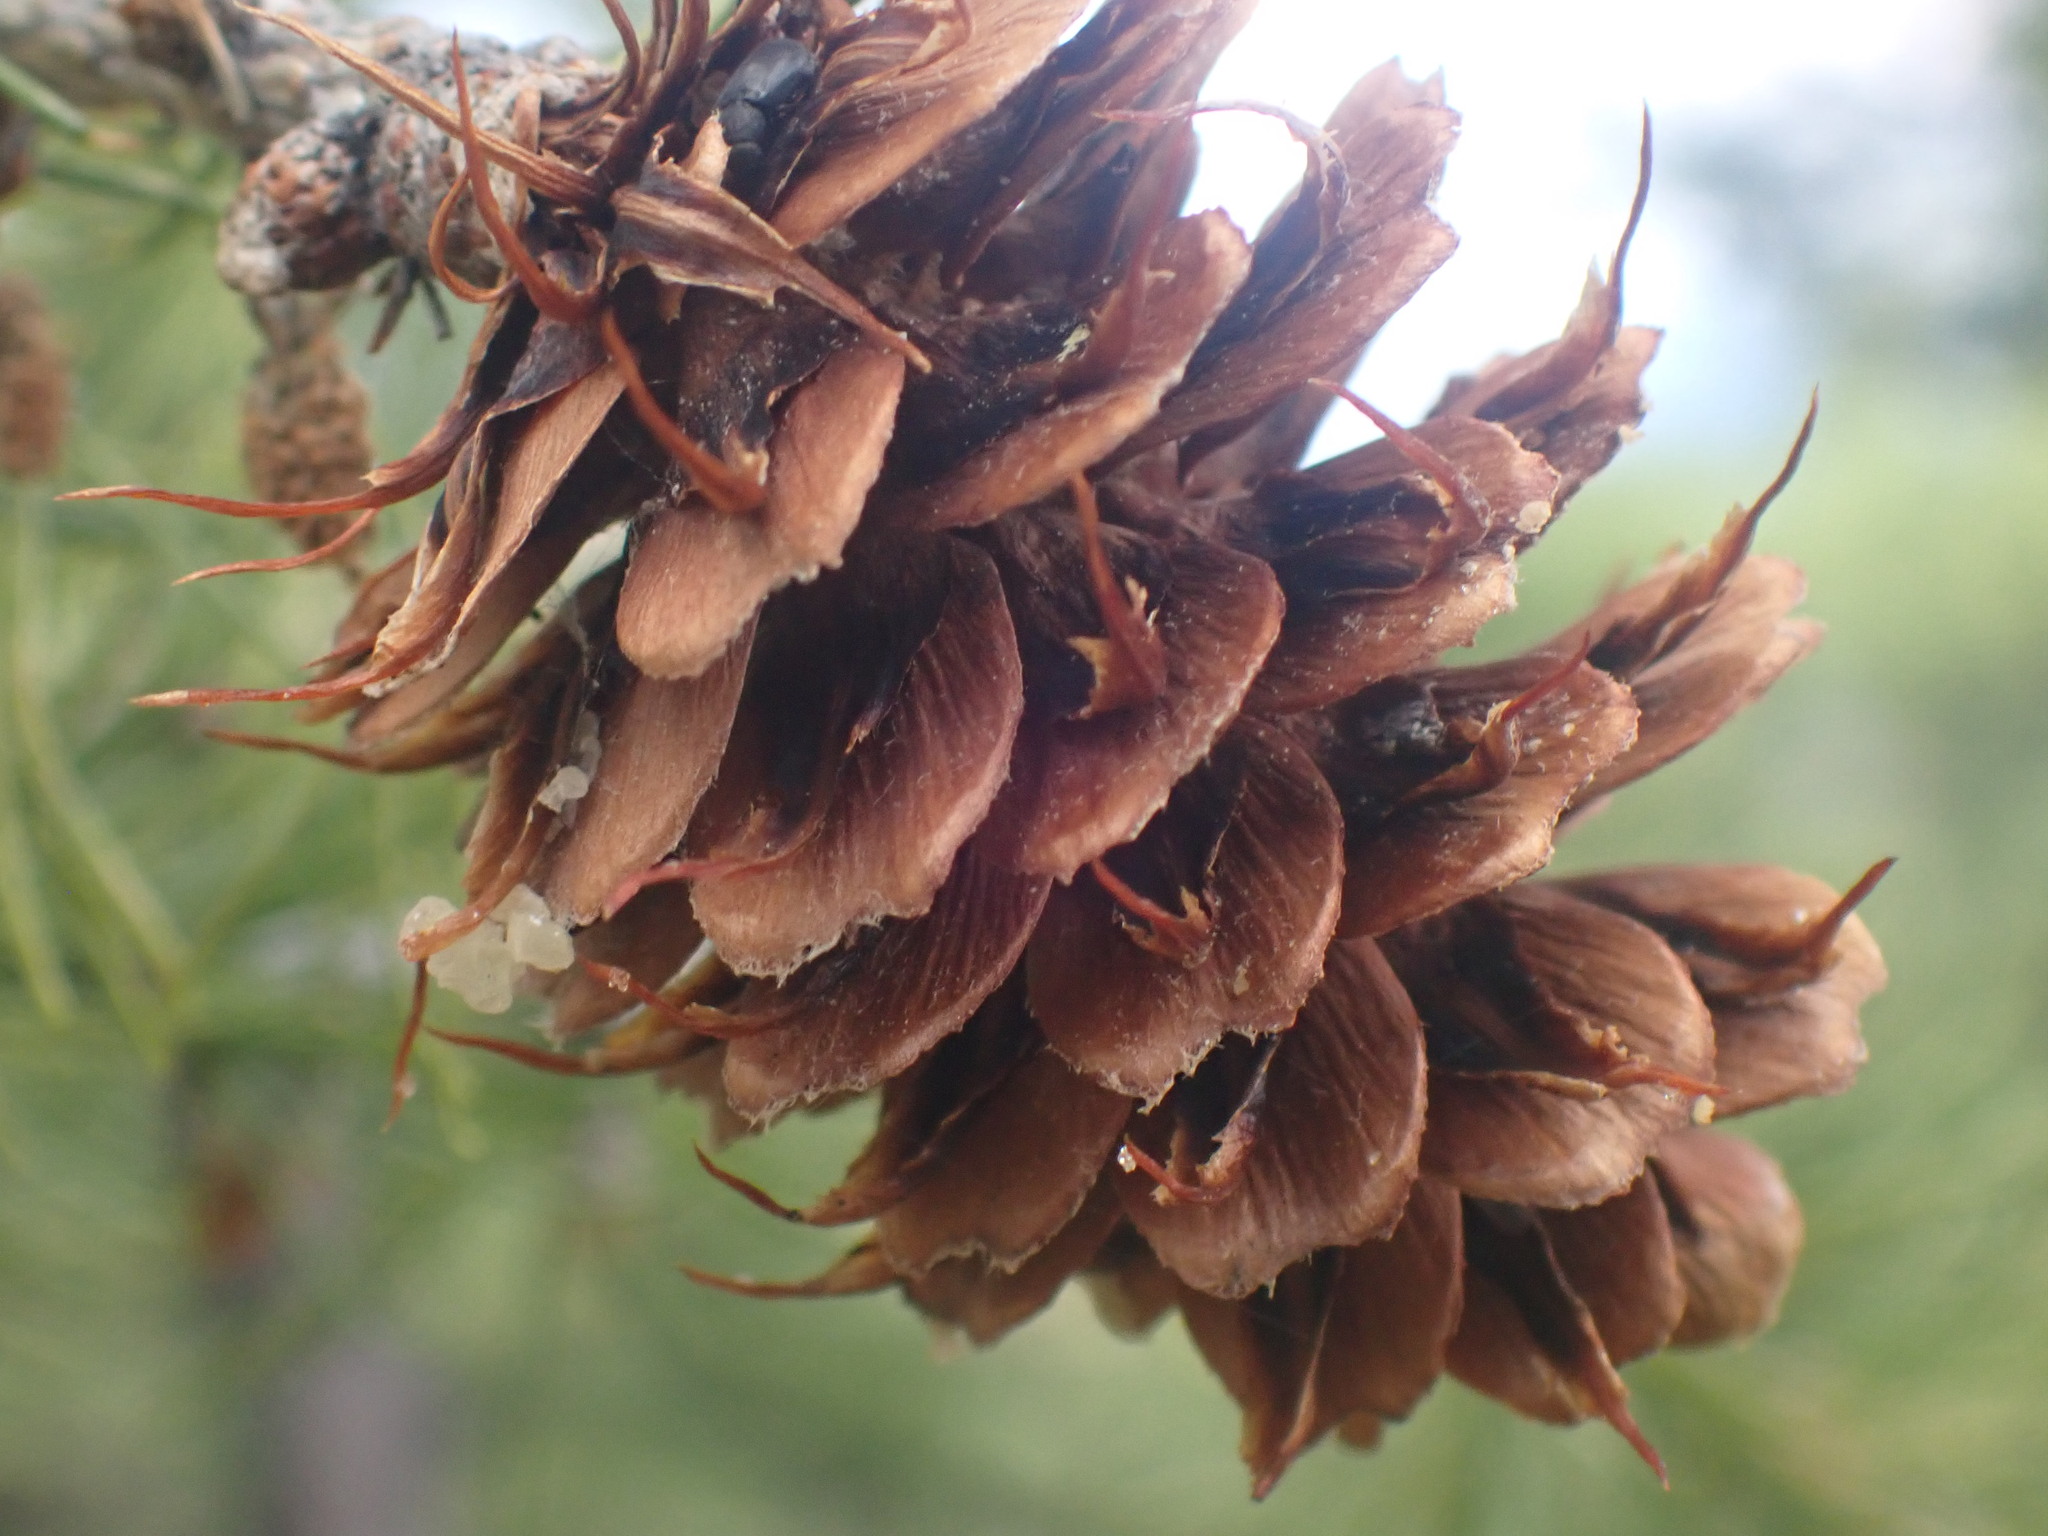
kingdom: Plantae
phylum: Tracheophyta
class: Pinopsida
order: Pinales
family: Pinaceae
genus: Larix
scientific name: Larix lyallii
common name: Alpine larch
